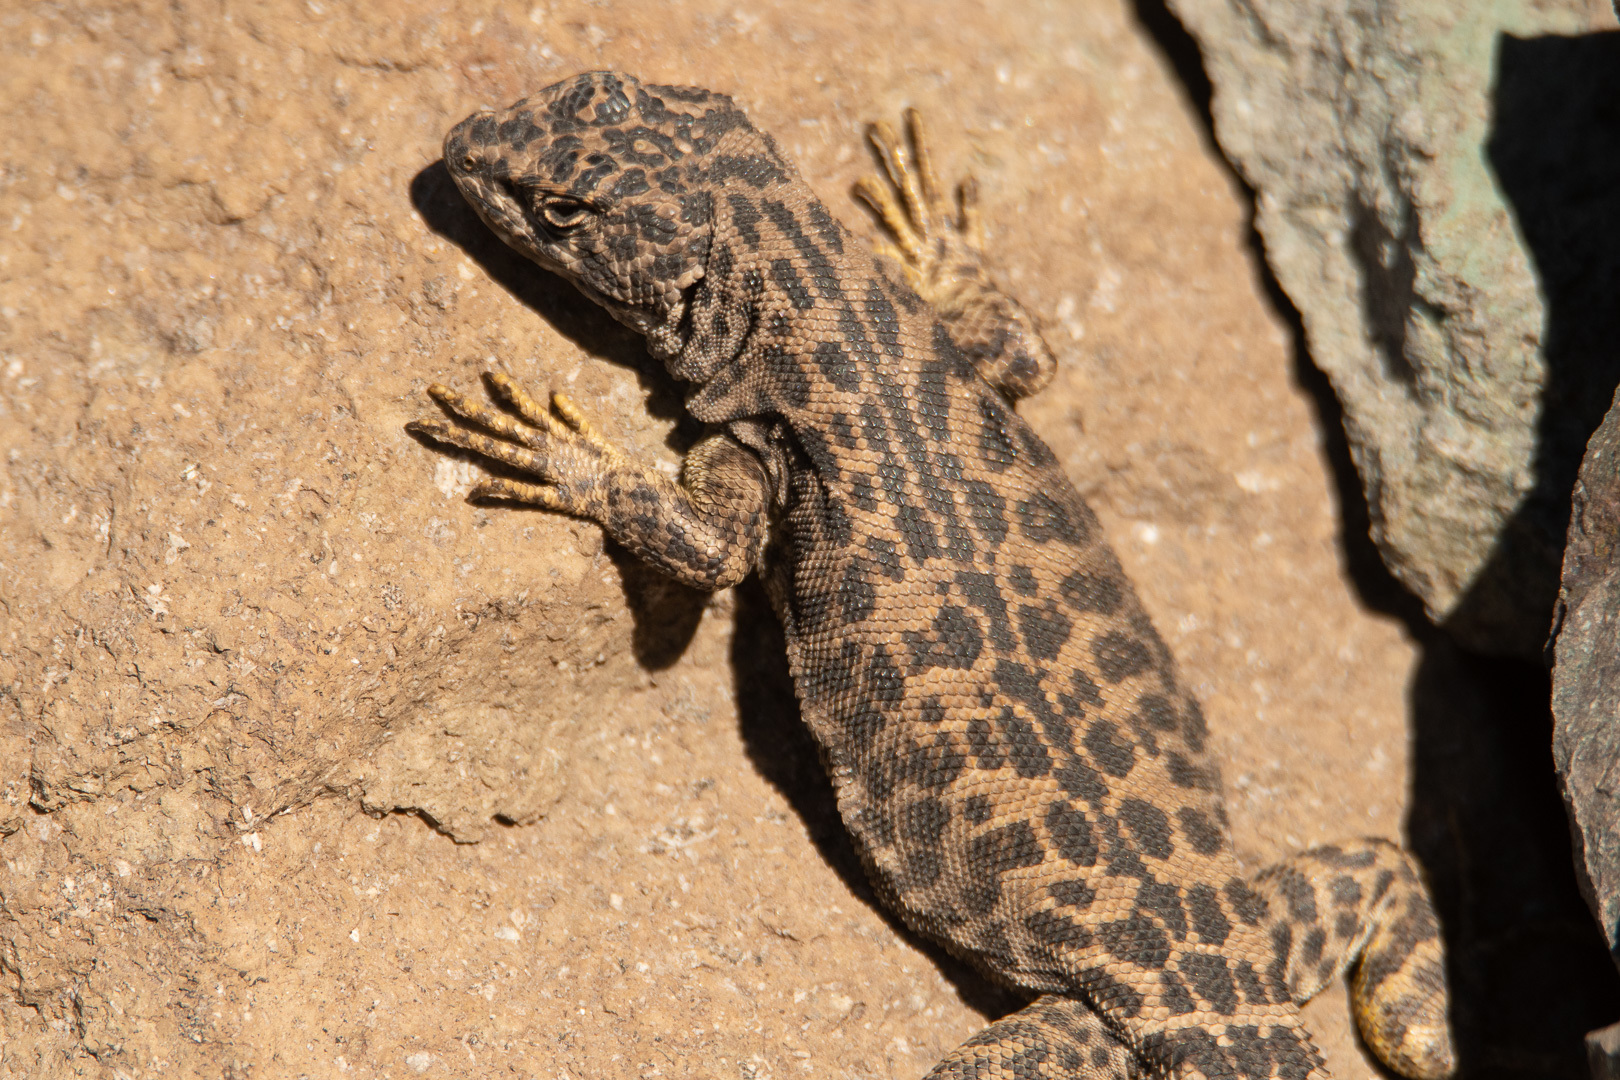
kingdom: Animalia
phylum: Chordata
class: Squamata
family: Liolaemidae
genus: Liolaemus
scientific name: Liolaemus leopardinus
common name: Leopard tree iguana
